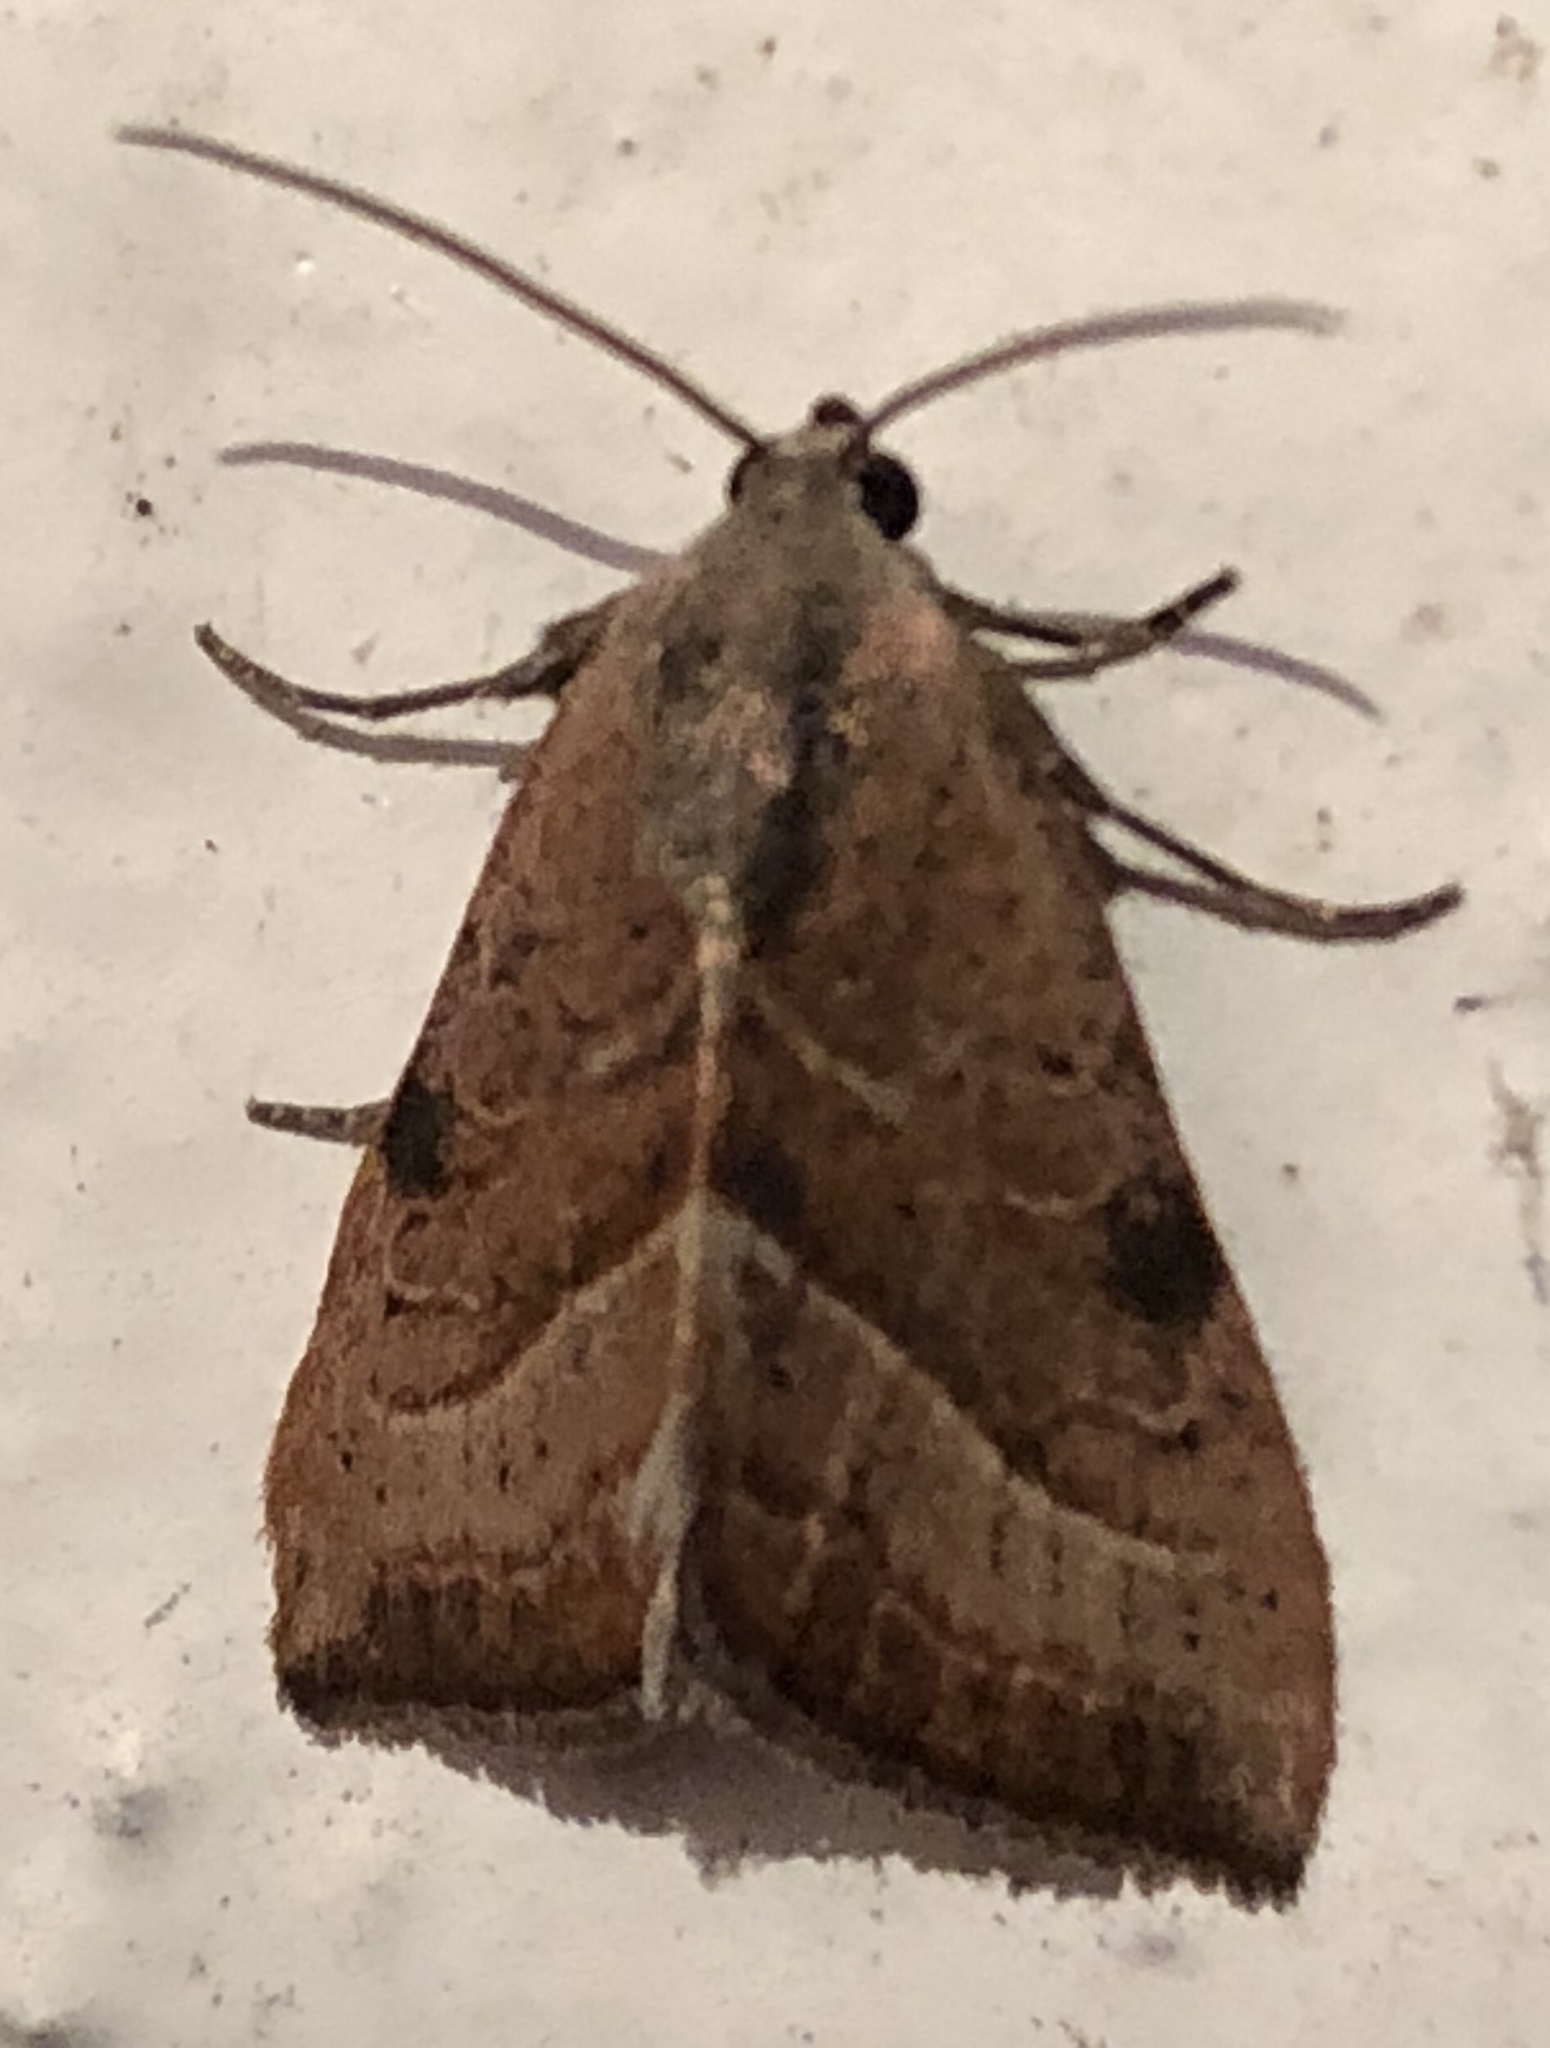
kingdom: Animalia
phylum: Arthropoda
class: Insecta
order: Lepidoptera
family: Noctuidae
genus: Galgula
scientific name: Galgula partita
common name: Wedgeling
